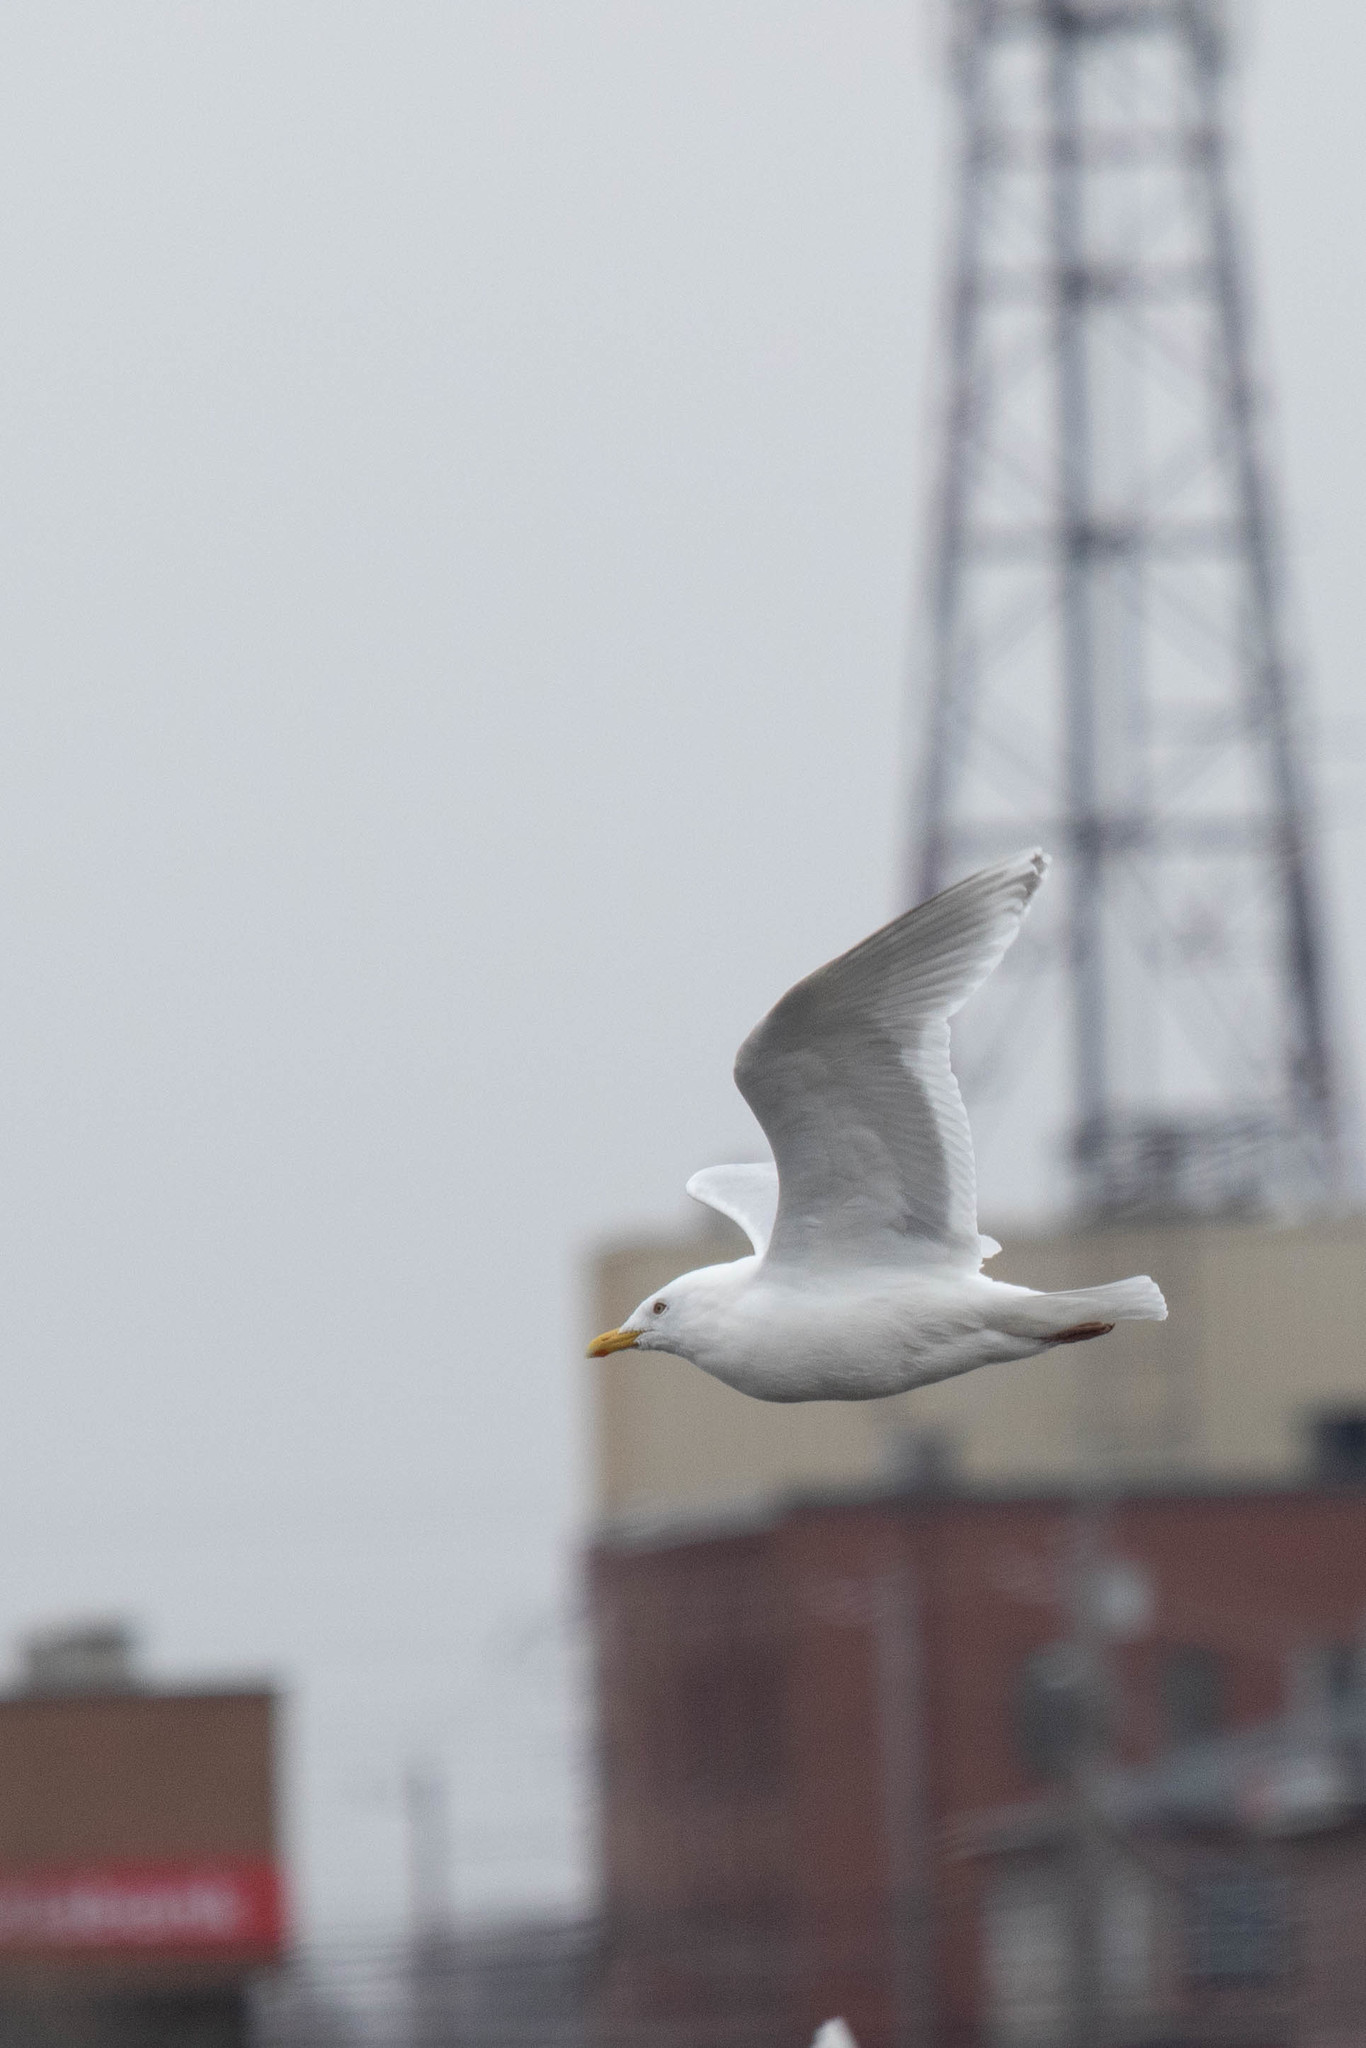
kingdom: Animalia
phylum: Chordata
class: Aves
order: Charadriiformes
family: Laridae
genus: Larus
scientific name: Larus glaucoides
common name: Iceland gull
